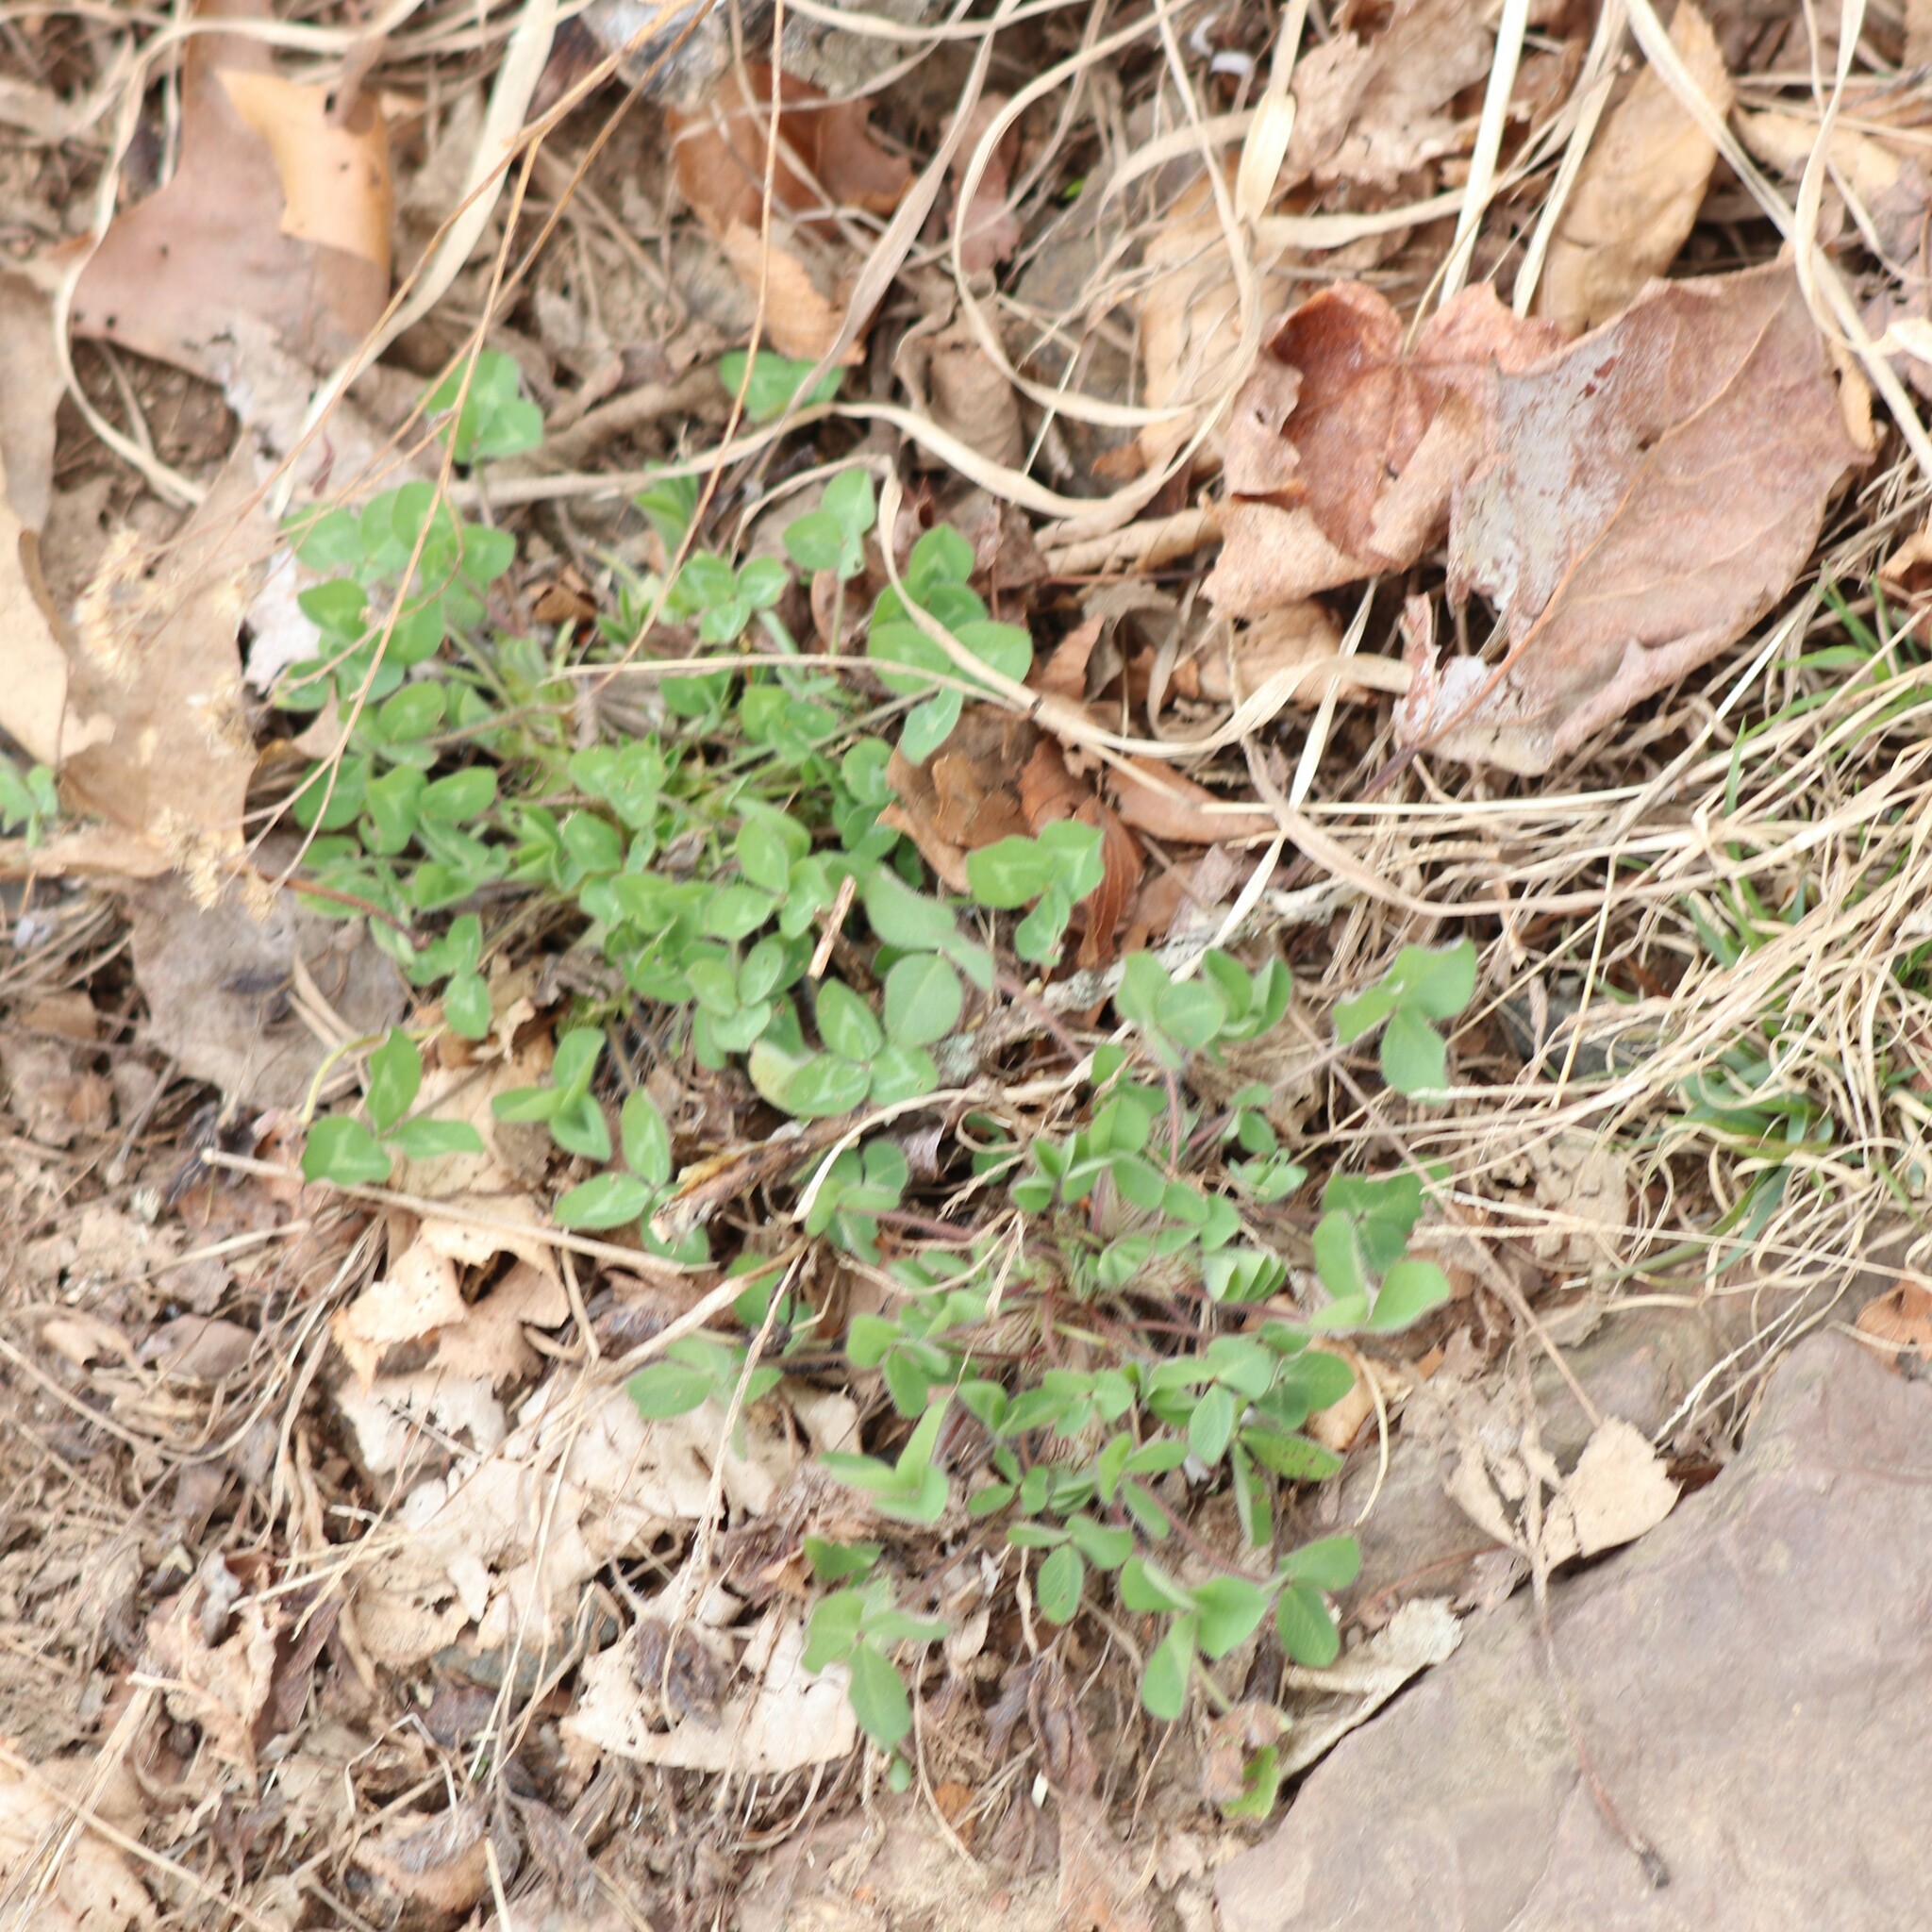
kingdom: Plantae
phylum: Tracheophyta
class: Magnoliopsida
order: Fabales
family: Fabaceae
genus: Trifolium
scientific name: Trifolium pratense
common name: Red clover
